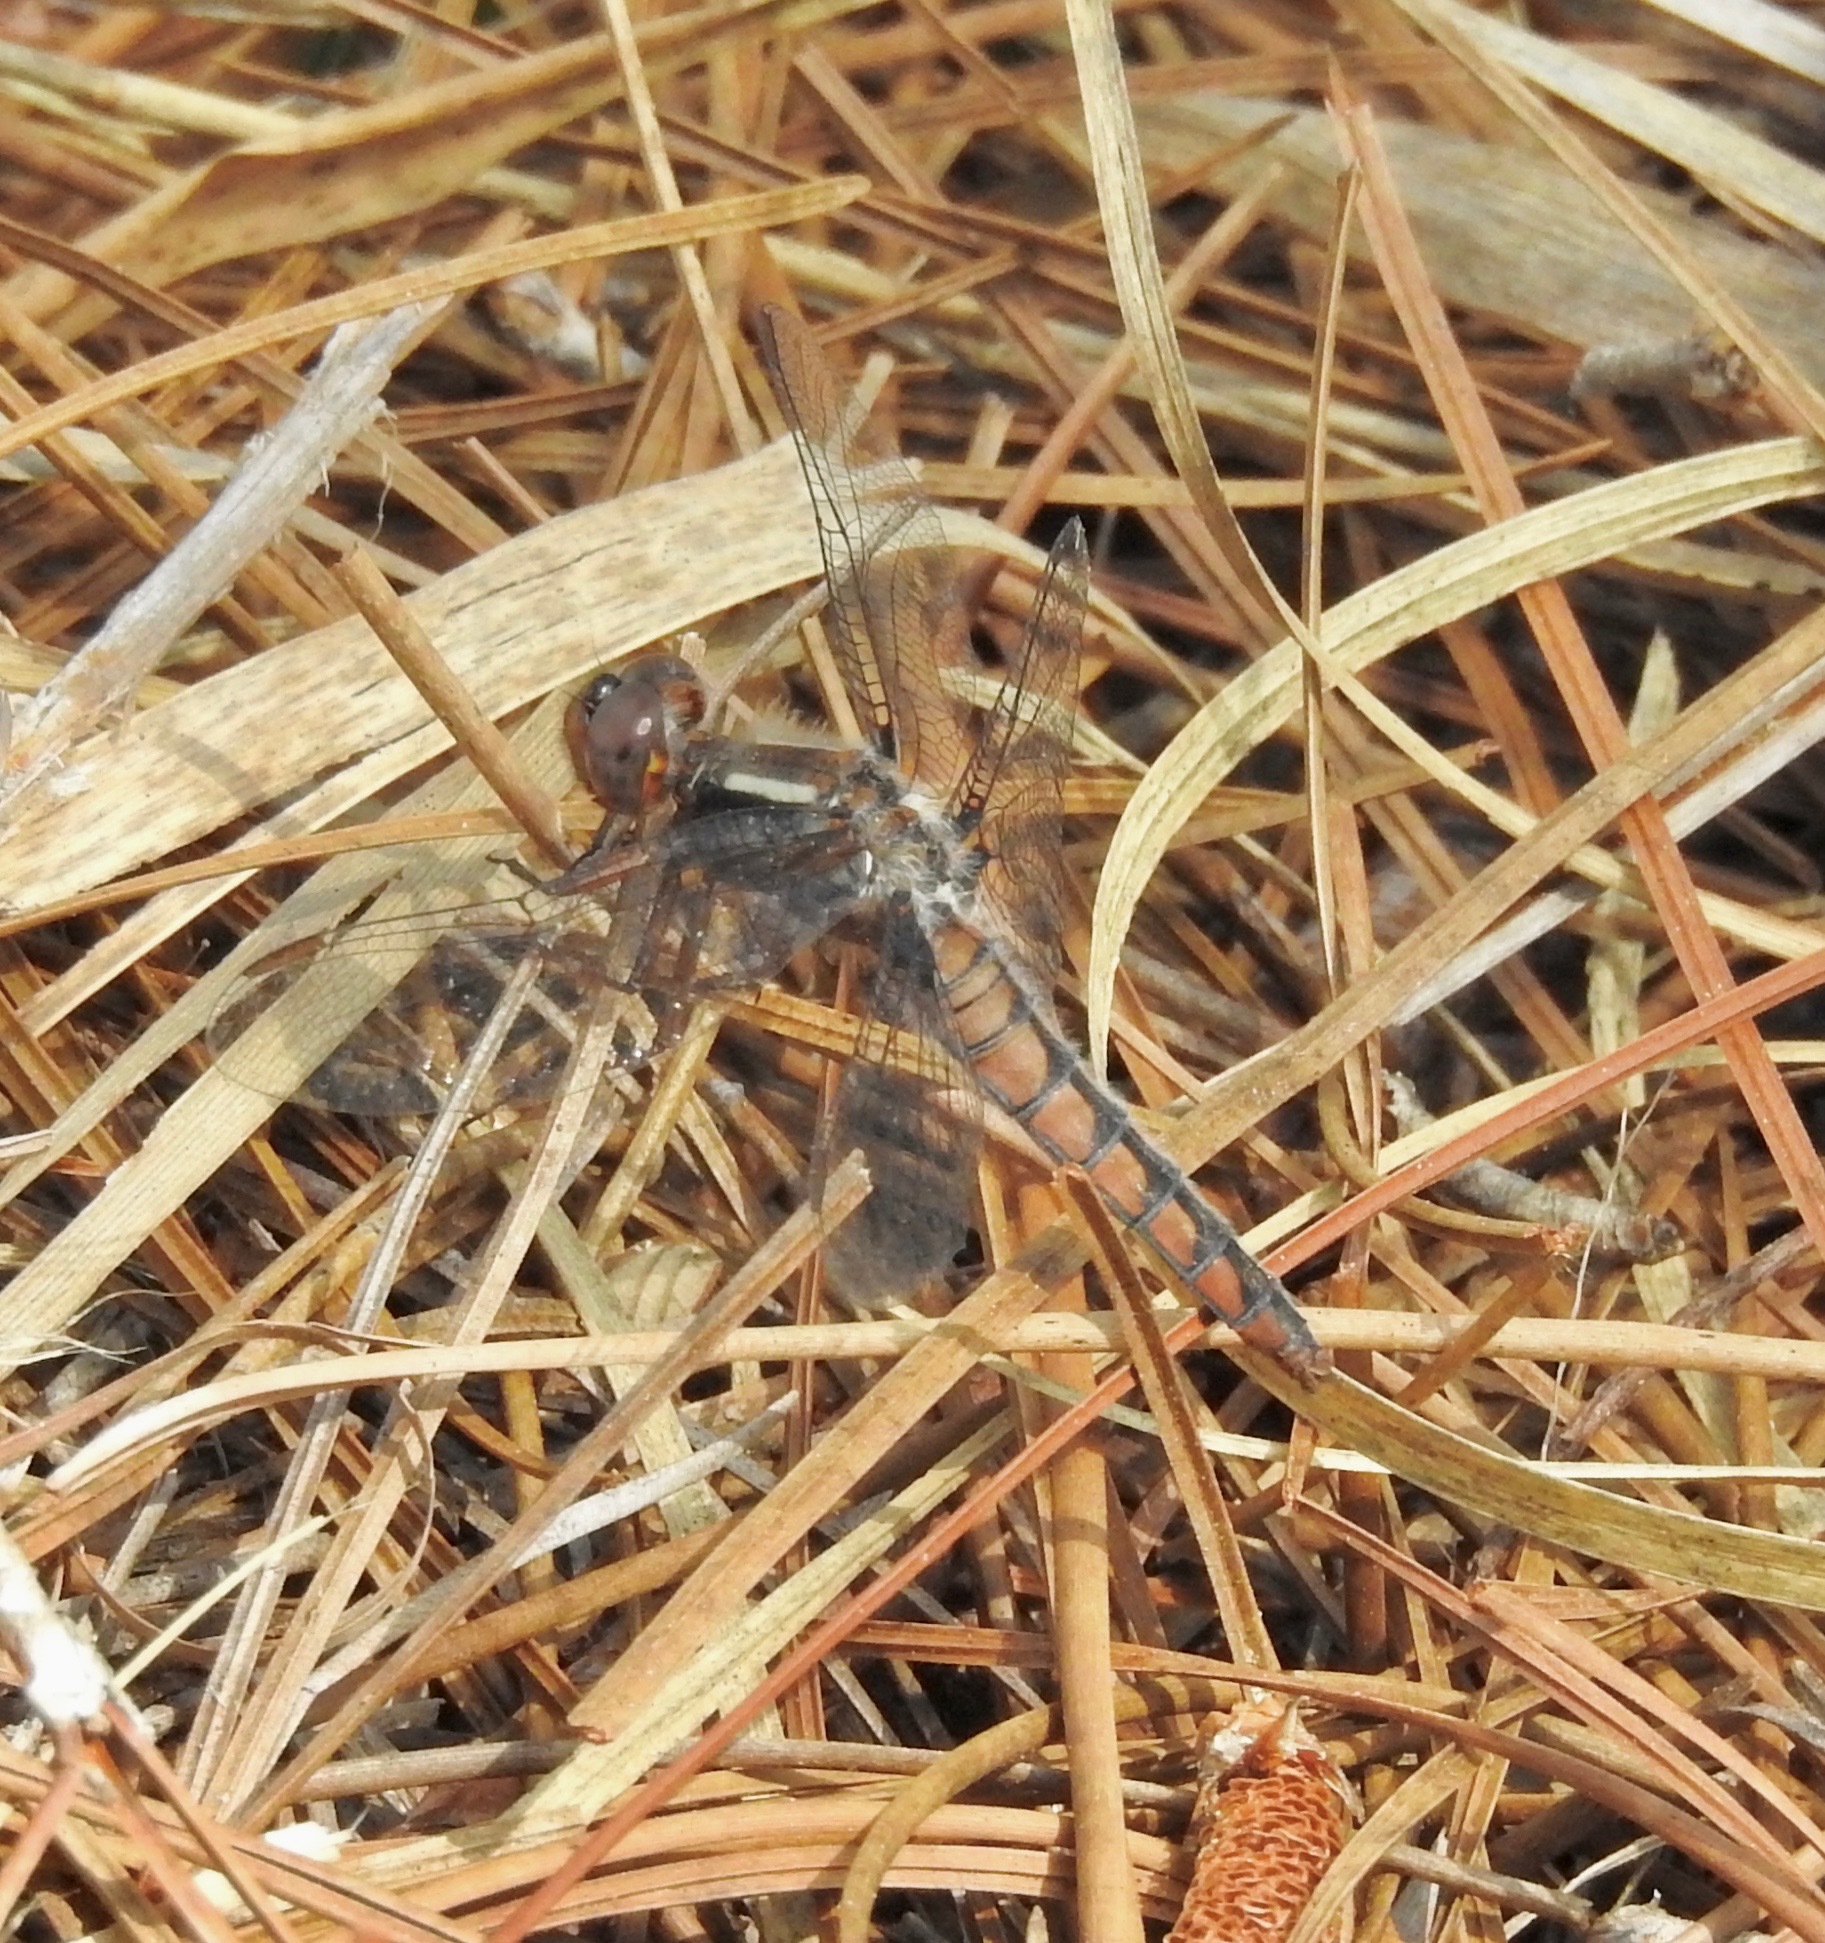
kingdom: Animalia
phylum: Arthropoda
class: Insecta
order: Odonata
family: Libellulidae
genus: Ladona
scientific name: Ladona deplanata
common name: Blue corporal
